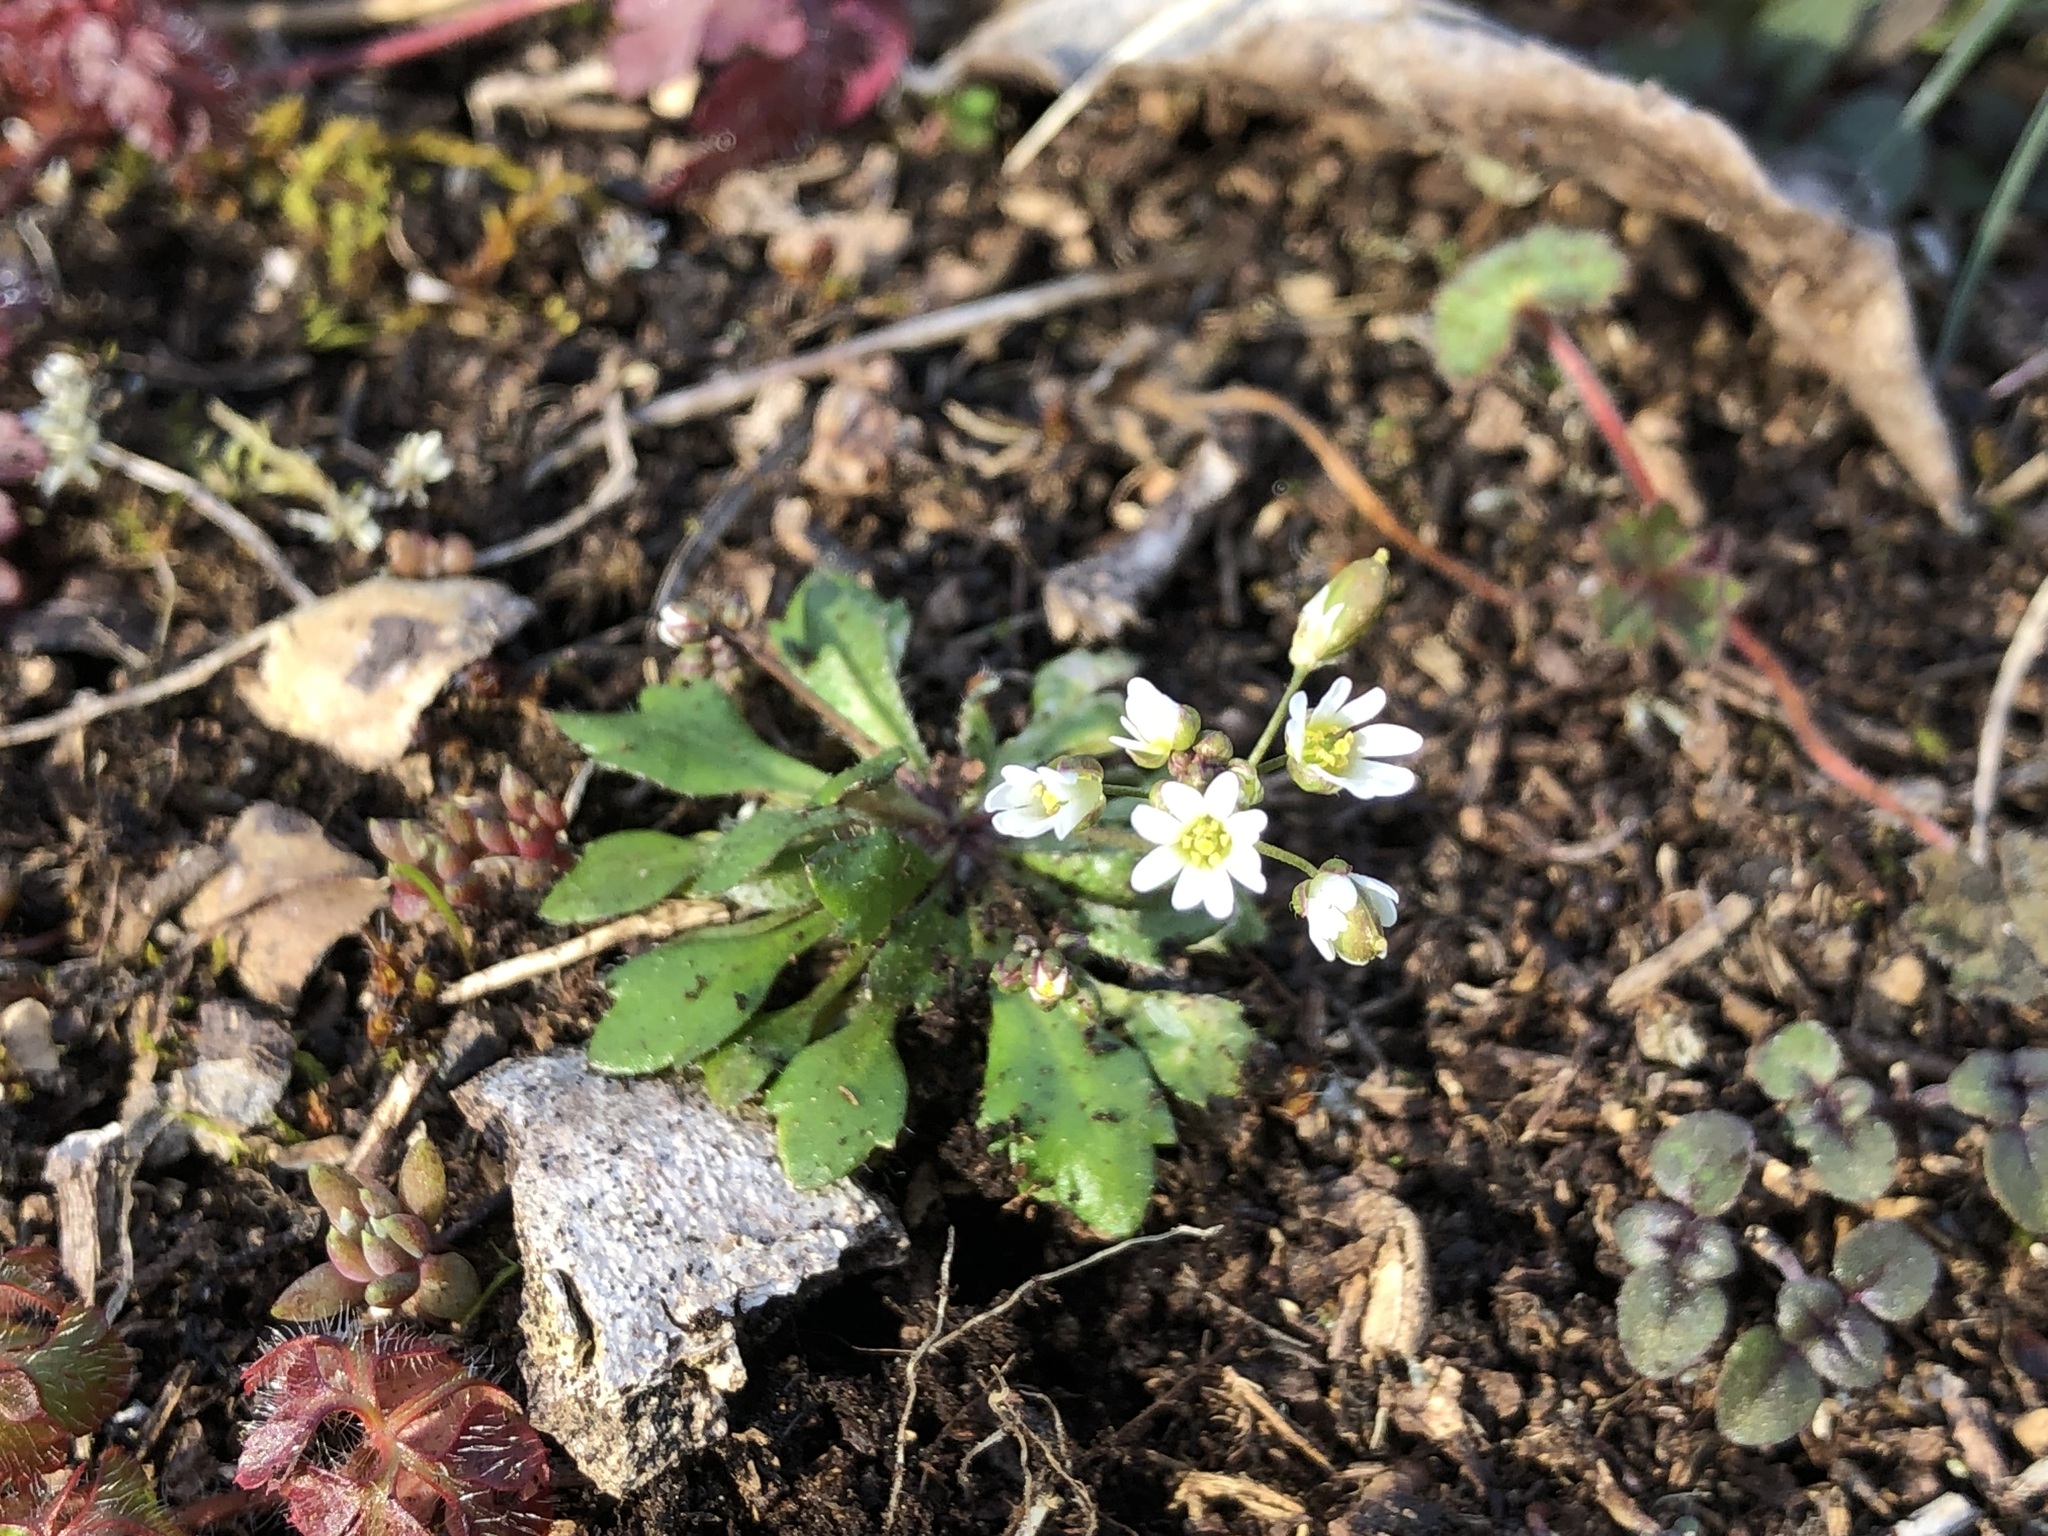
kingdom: Plantae
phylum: Tracheophyta
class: Magnoliopsida
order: Brassicales
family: Brassicaceae
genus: Draba
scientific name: Draba verna
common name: Spring draba
